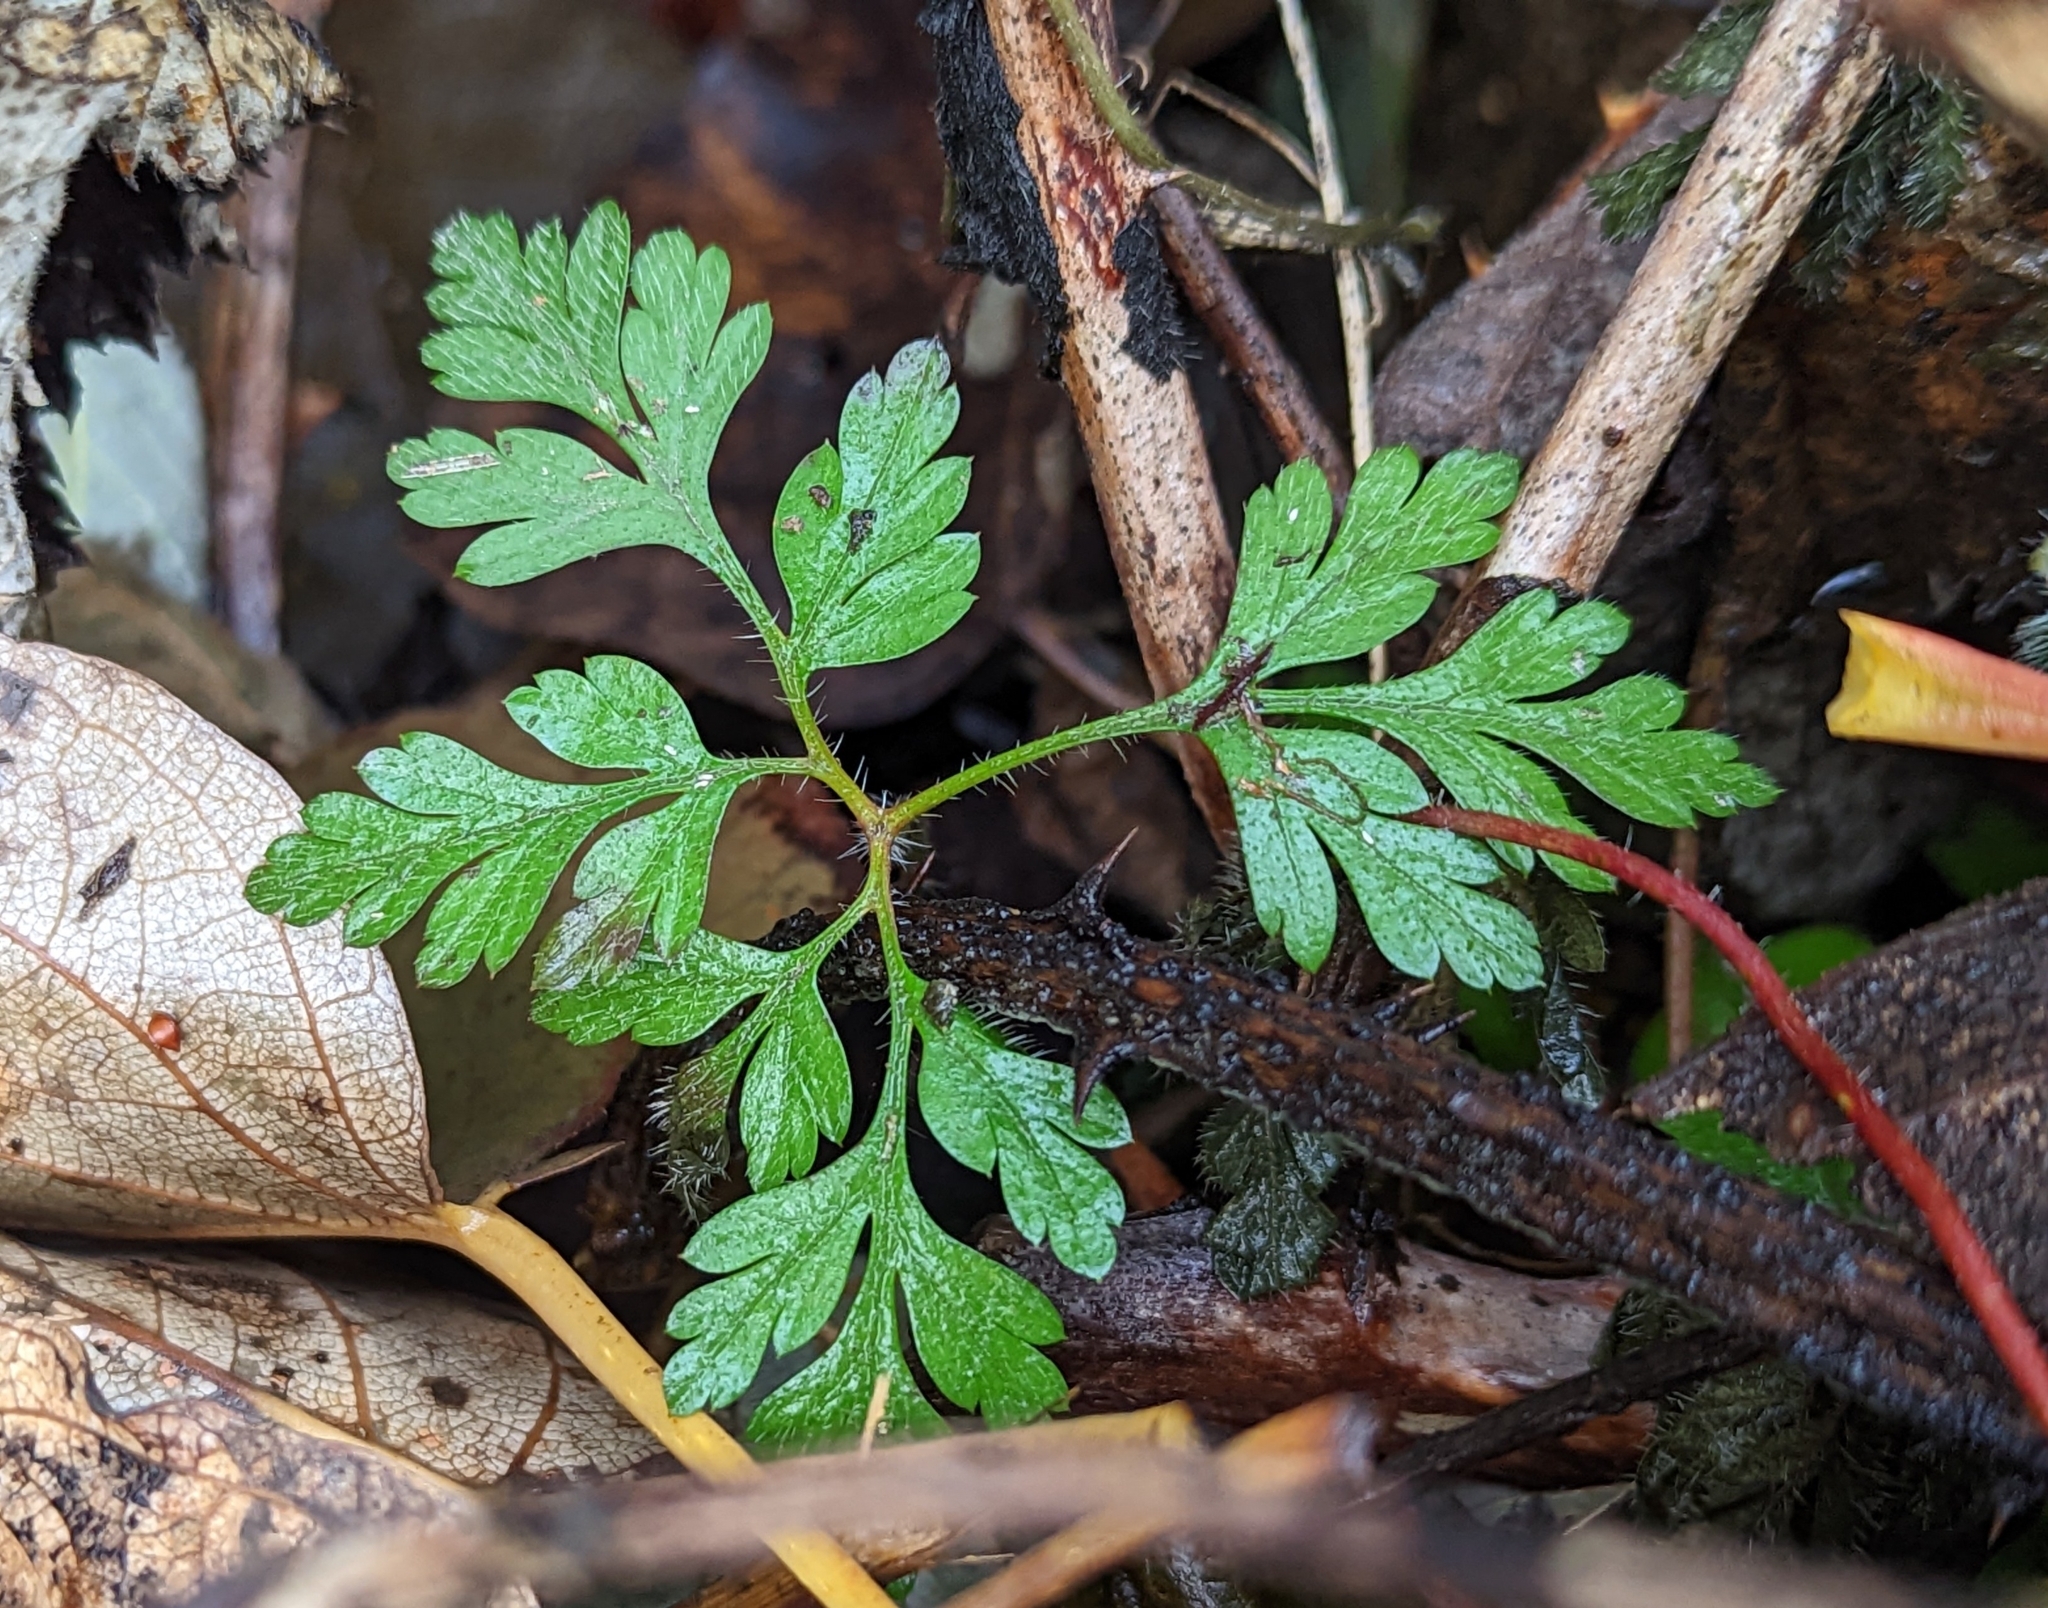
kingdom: Plantae
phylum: Tracheophyta
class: Magnoliopsida
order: Geraniales
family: Geraniaceae
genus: Geranium
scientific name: Geranium robertianum
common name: Herb-robert
